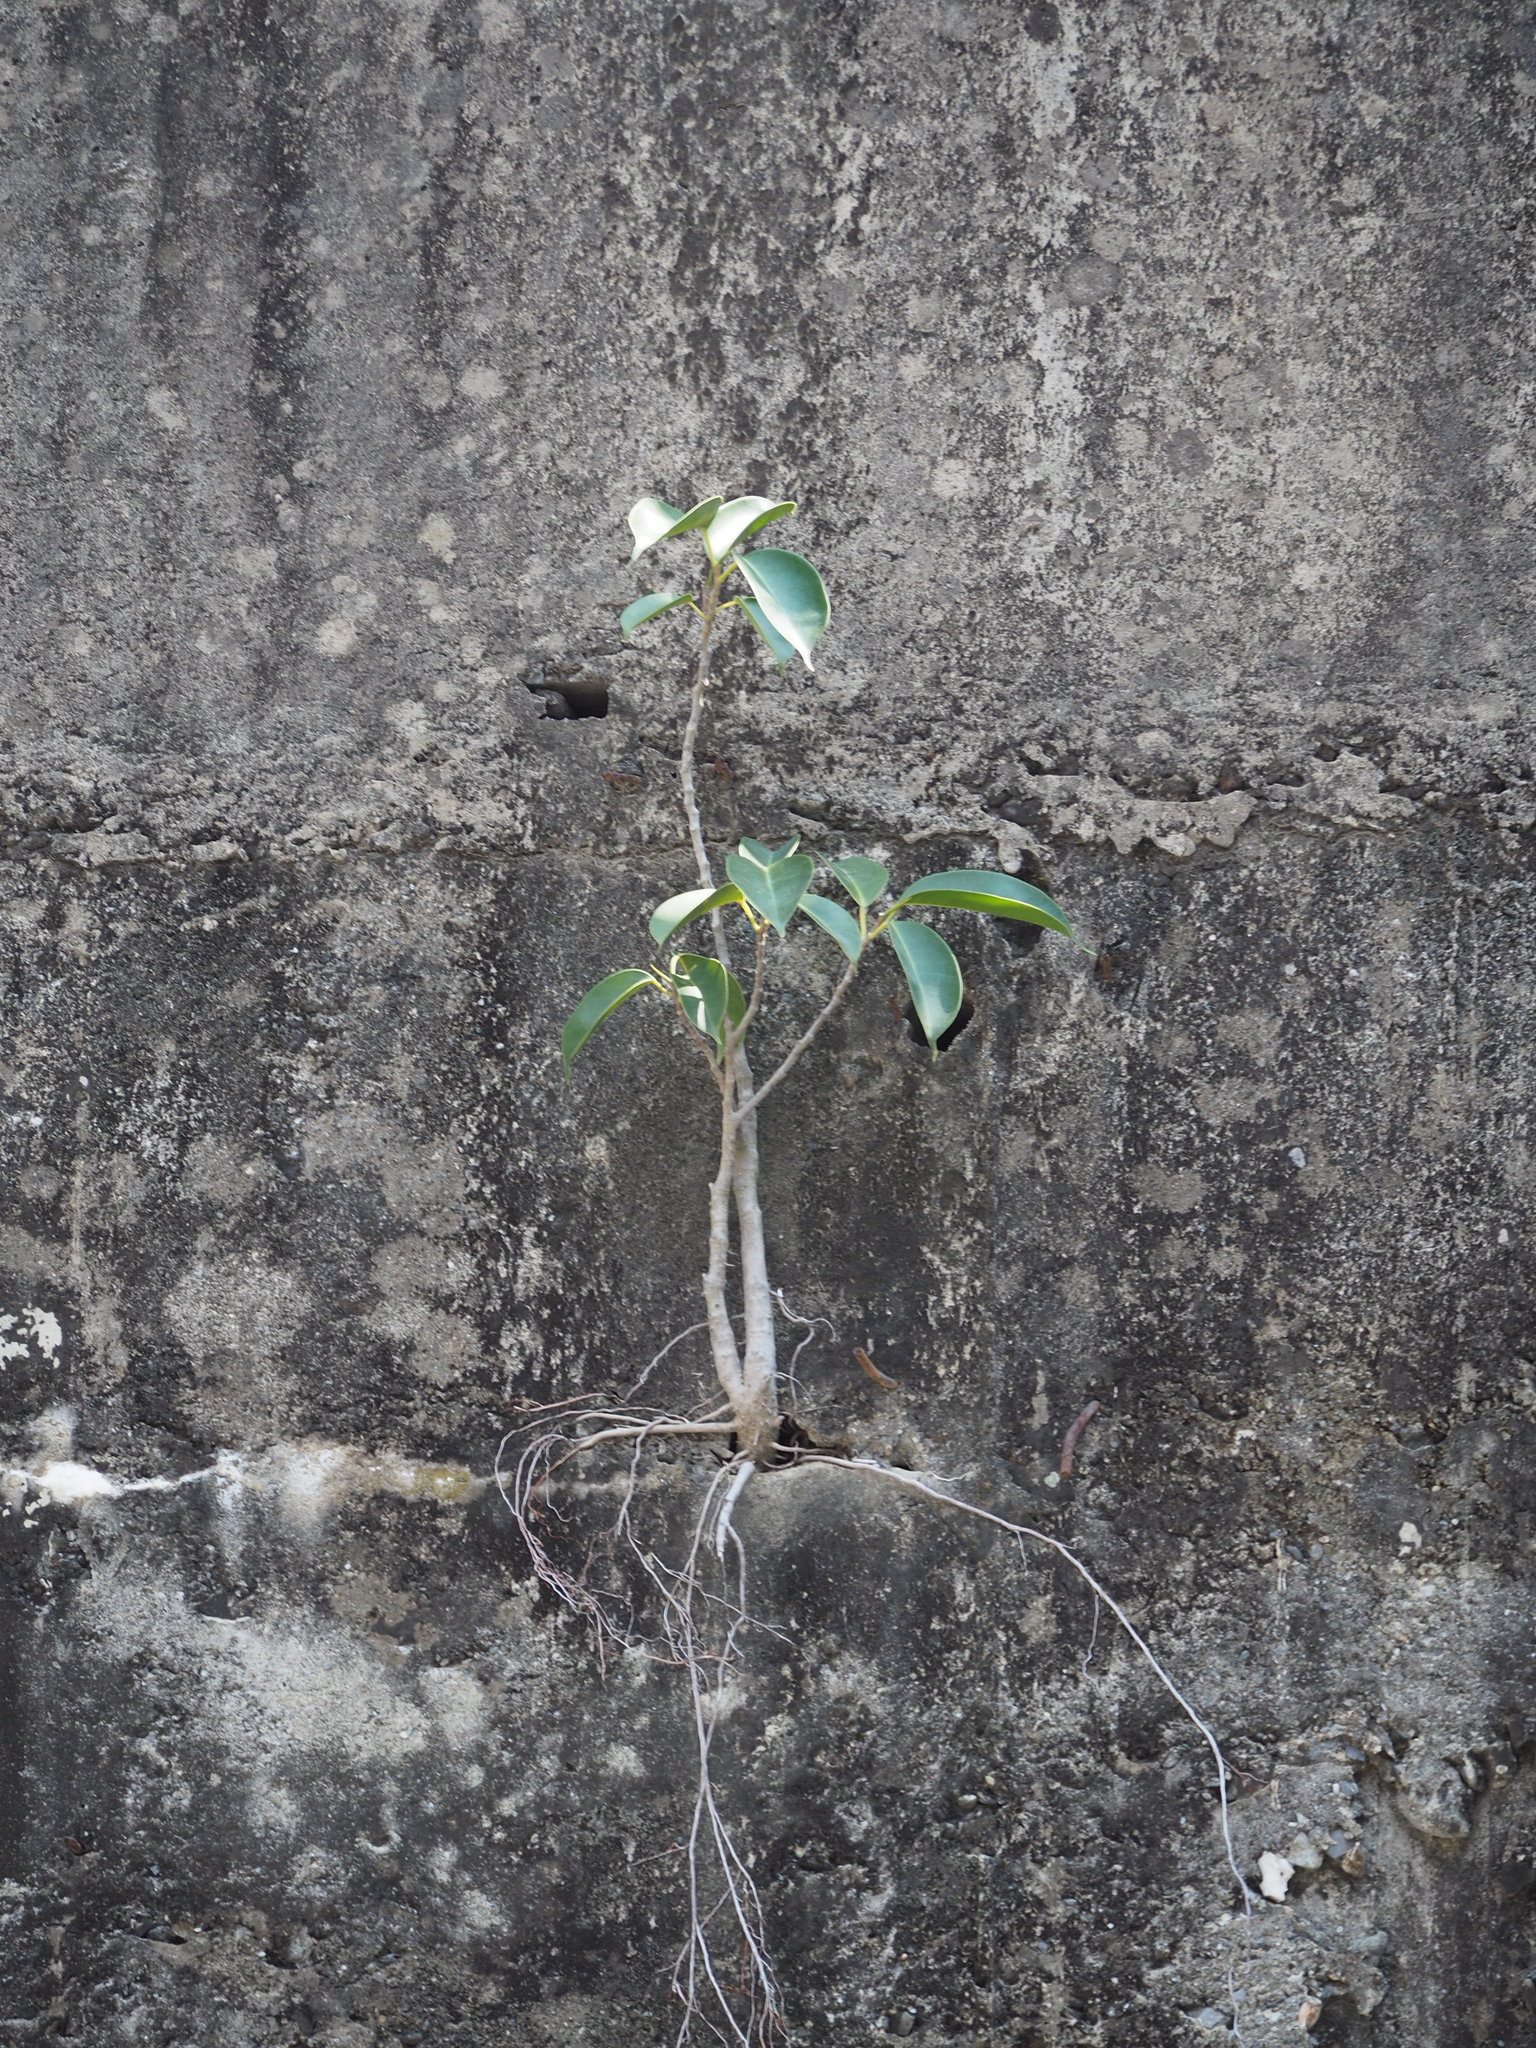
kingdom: Plantae
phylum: Tracheophyta
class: Magnoliopsida
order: Rosales
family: Moraceae
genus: Ficus
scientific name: Ficus microcarpa
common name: Chinese banyan
